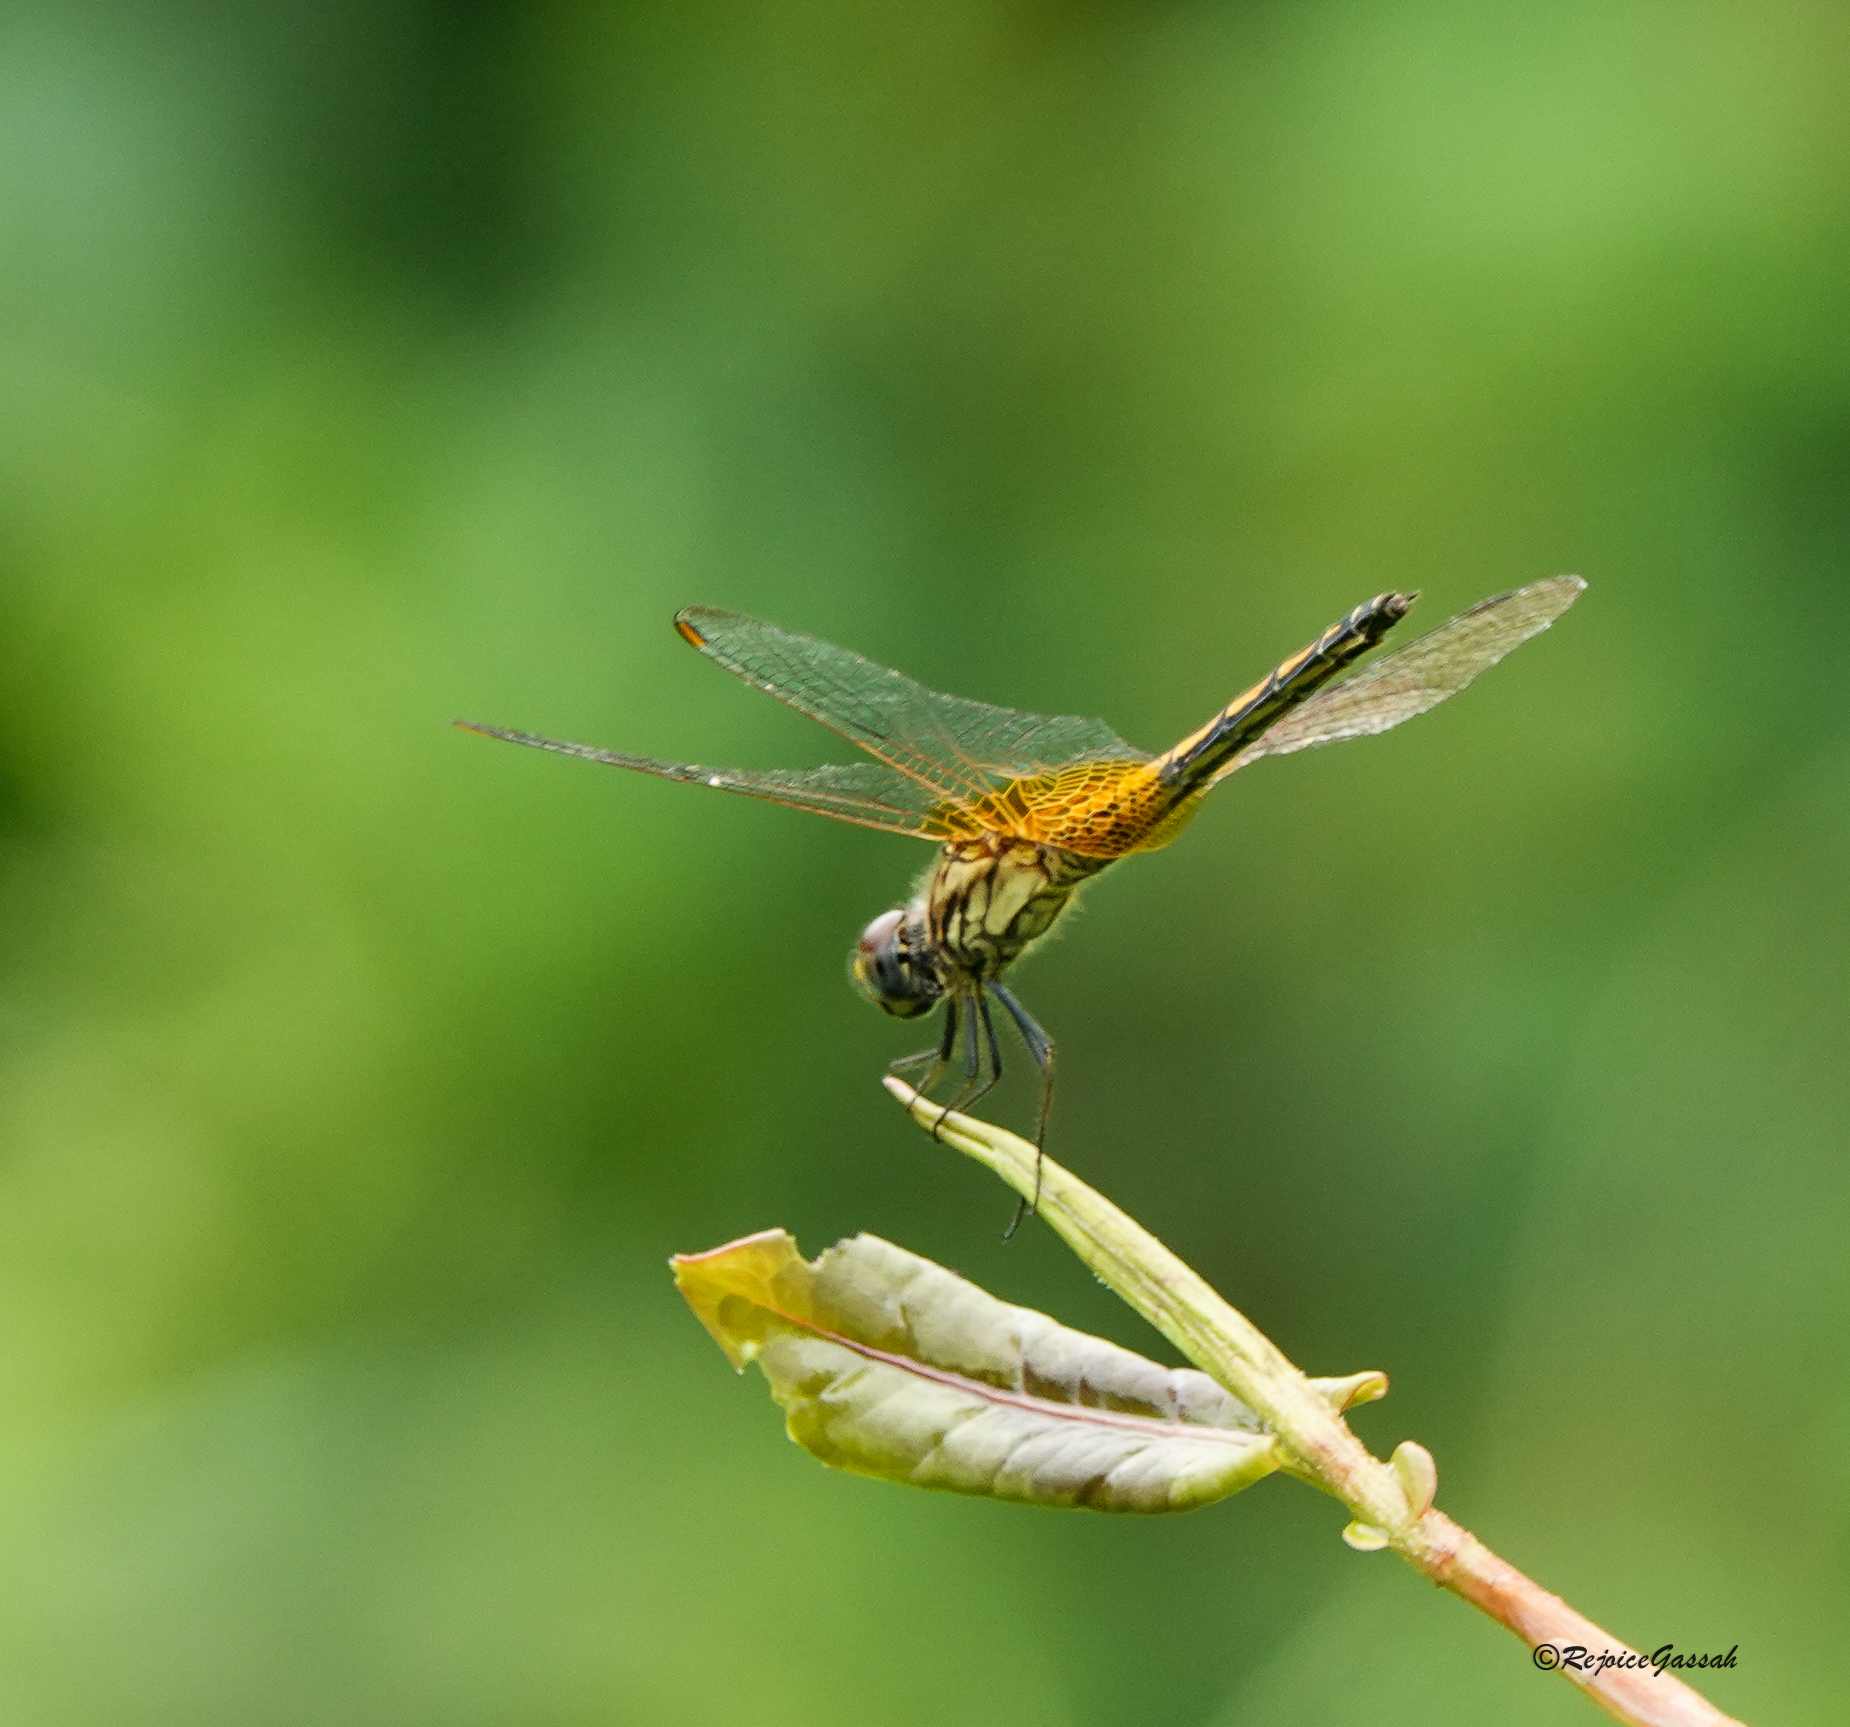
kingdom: Animalia
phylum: Arthropoda
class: Insecta
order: Odonata
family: Libellulidae
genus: Trithemis
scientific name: Trithemis aurora
